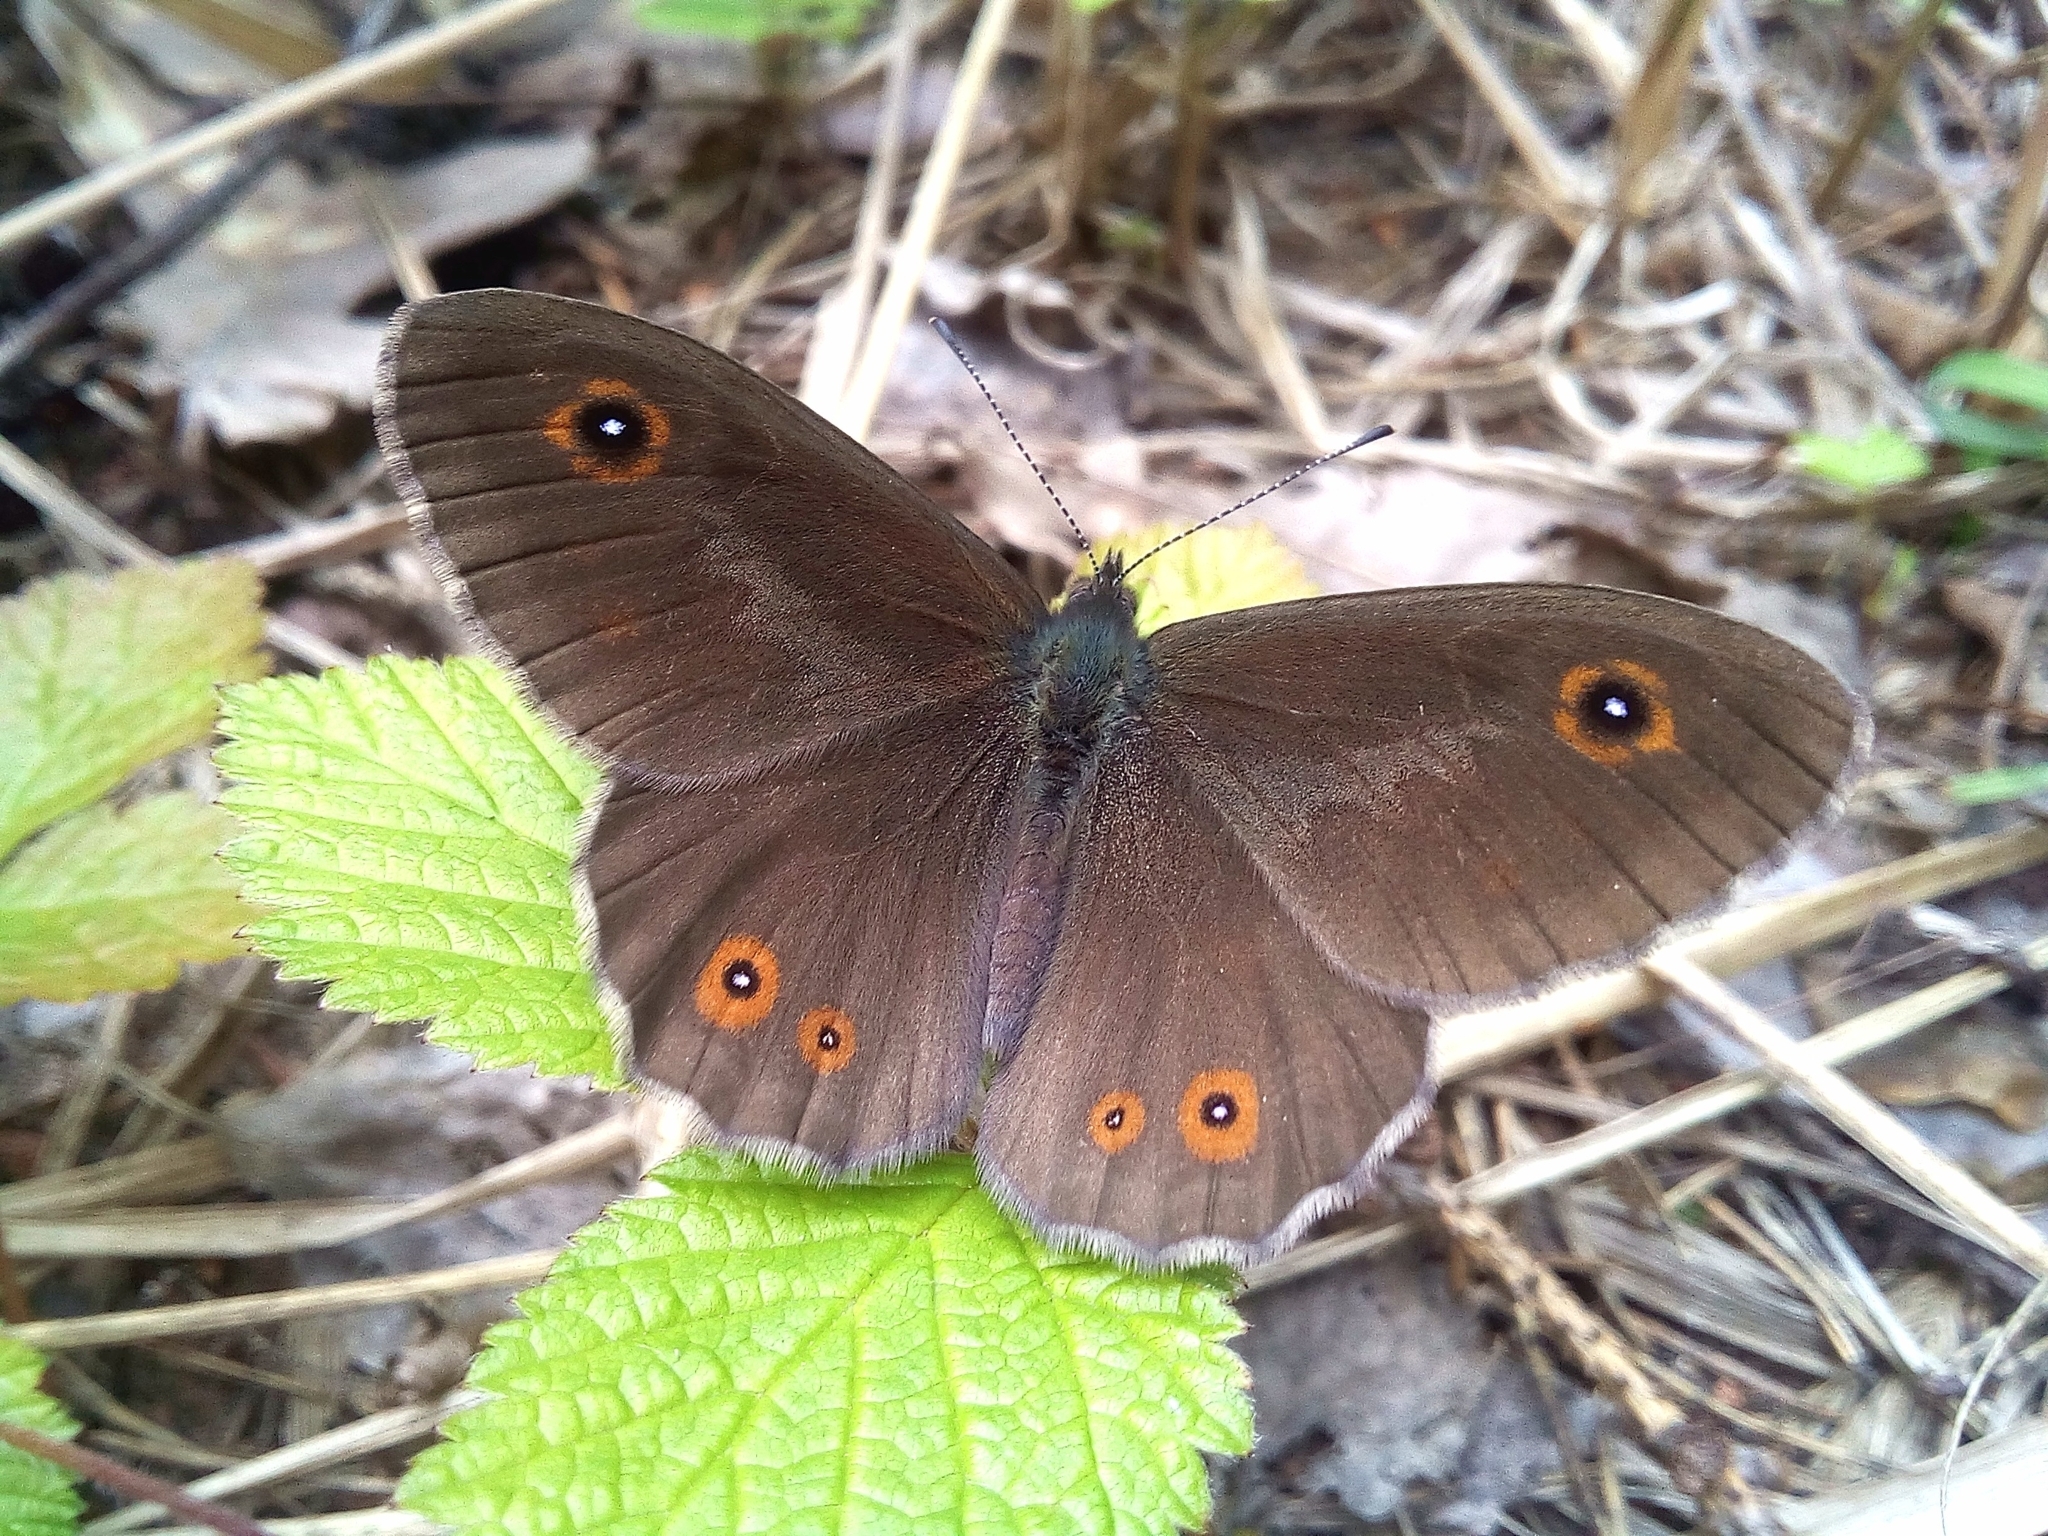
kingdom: Animalia
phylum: Arthropoda
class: Insecta
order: Lepidoptera
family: Nymphalidae
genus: Pararge
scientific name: Pararge Lasiommata maera
